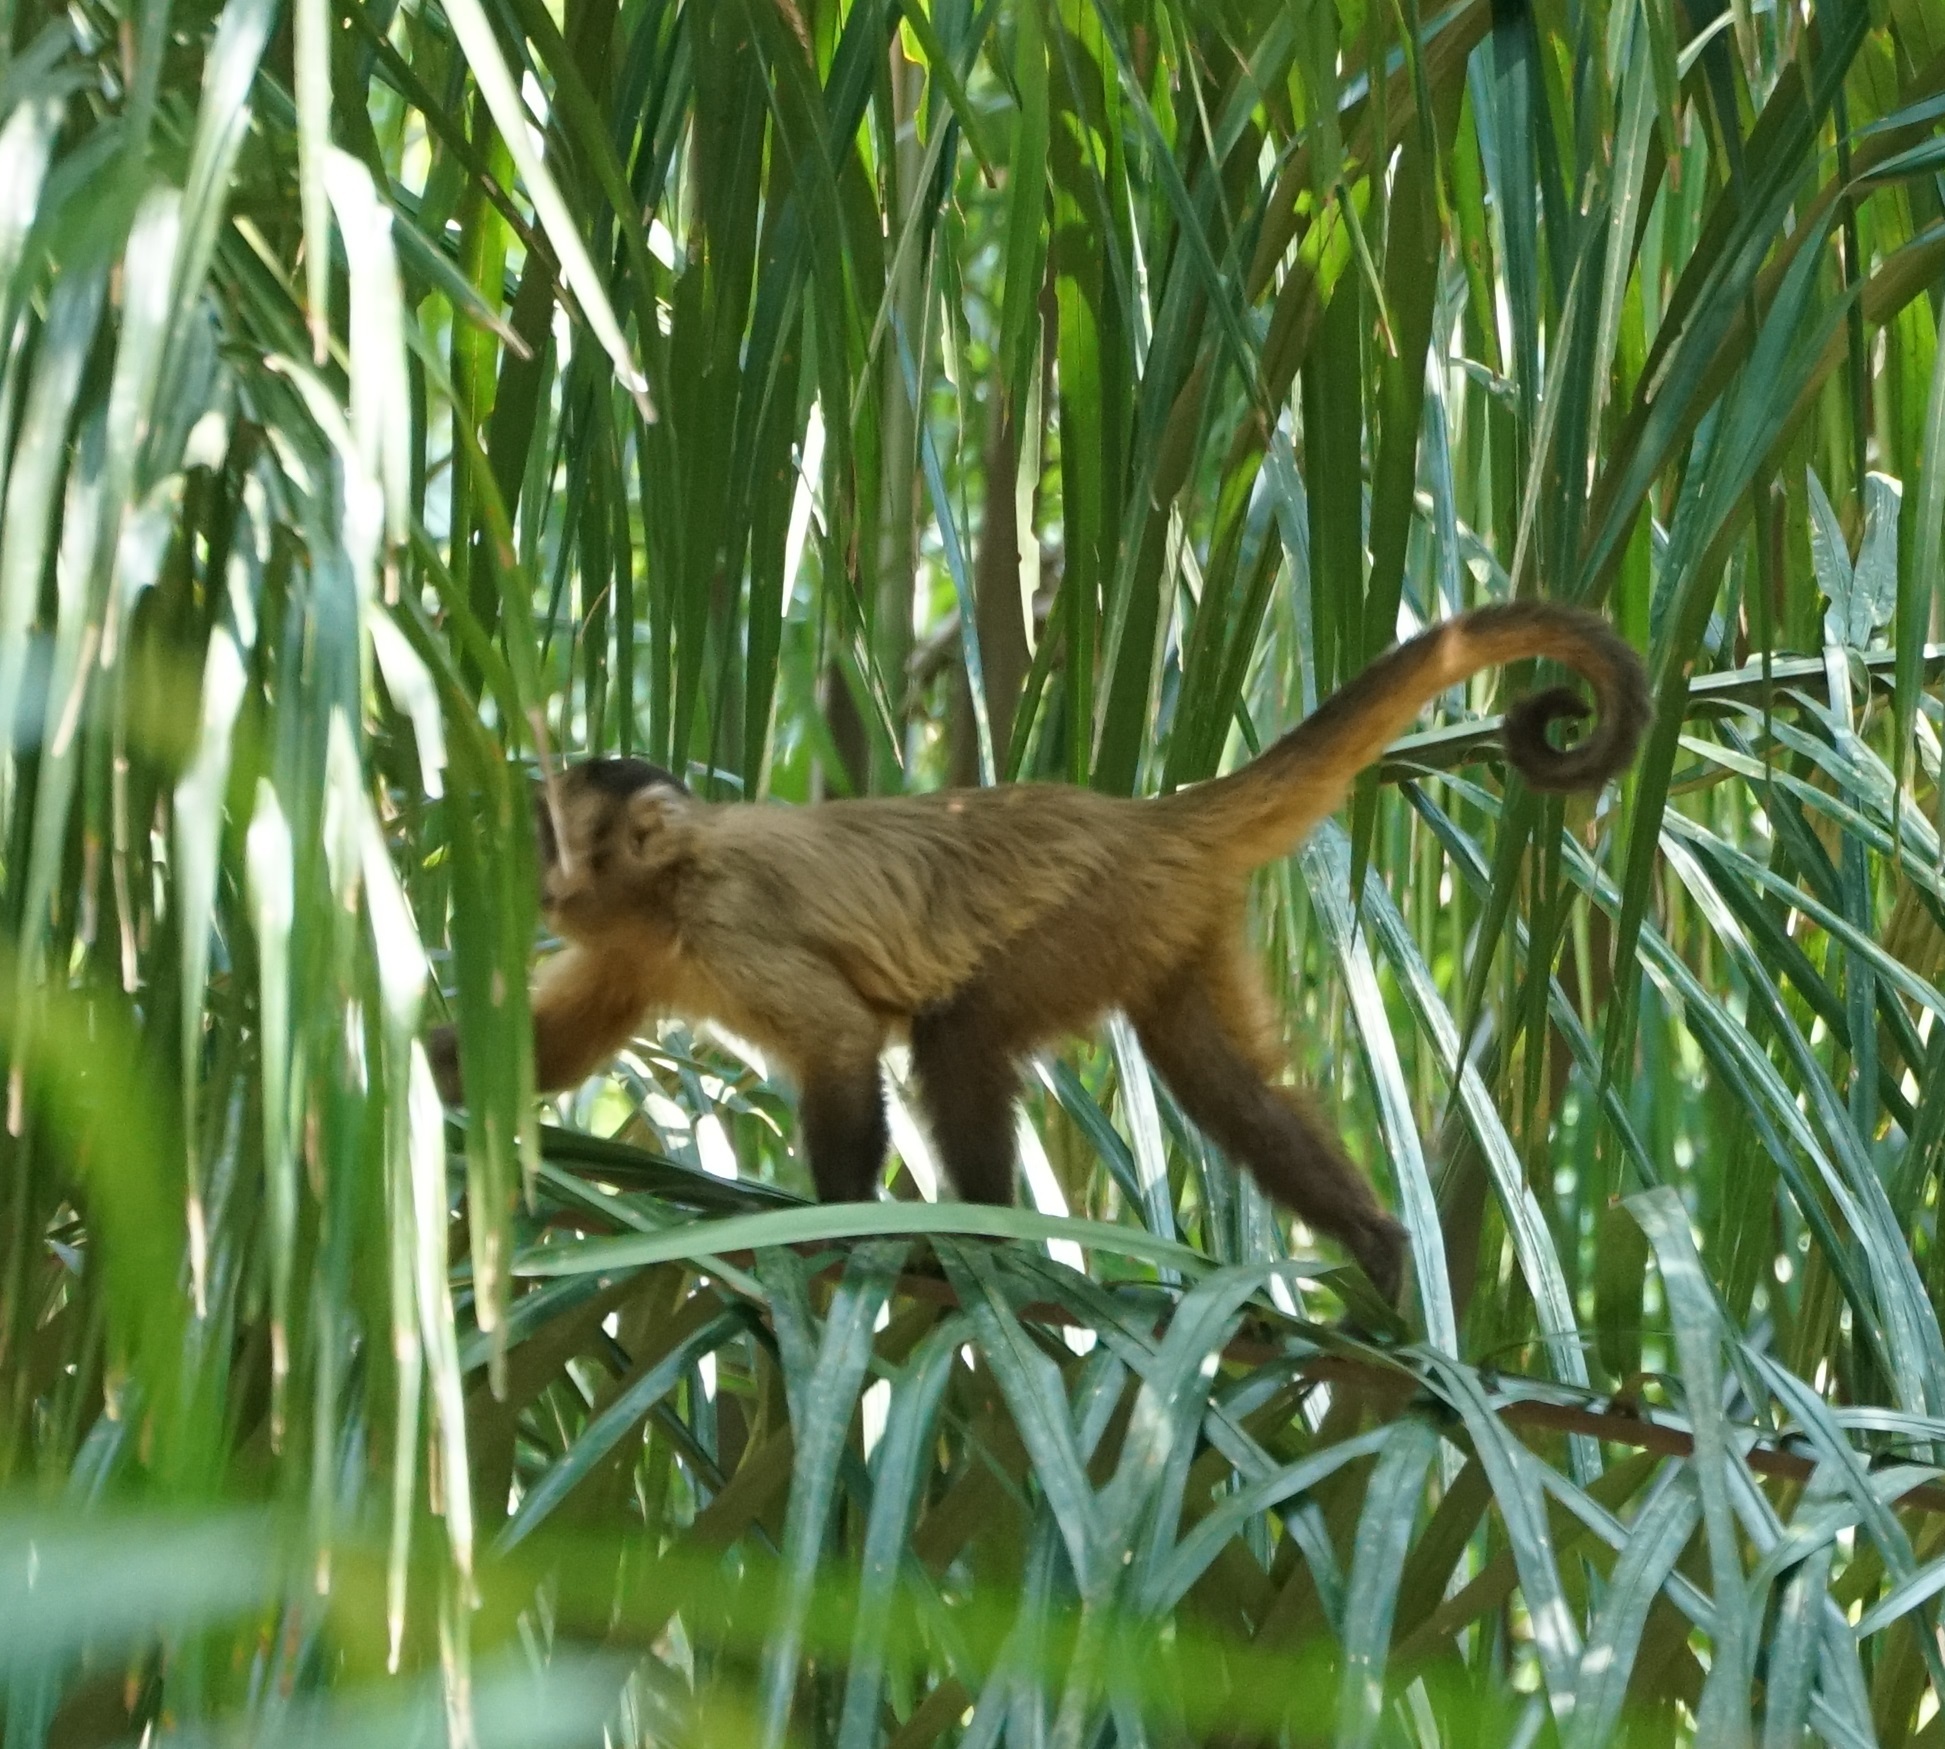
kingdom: Animalia
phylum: Chordata
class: Mammalia
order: Primates
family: Cebidae
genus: Sapajus
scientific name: Sapajus apella
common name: Tufted capuchin
